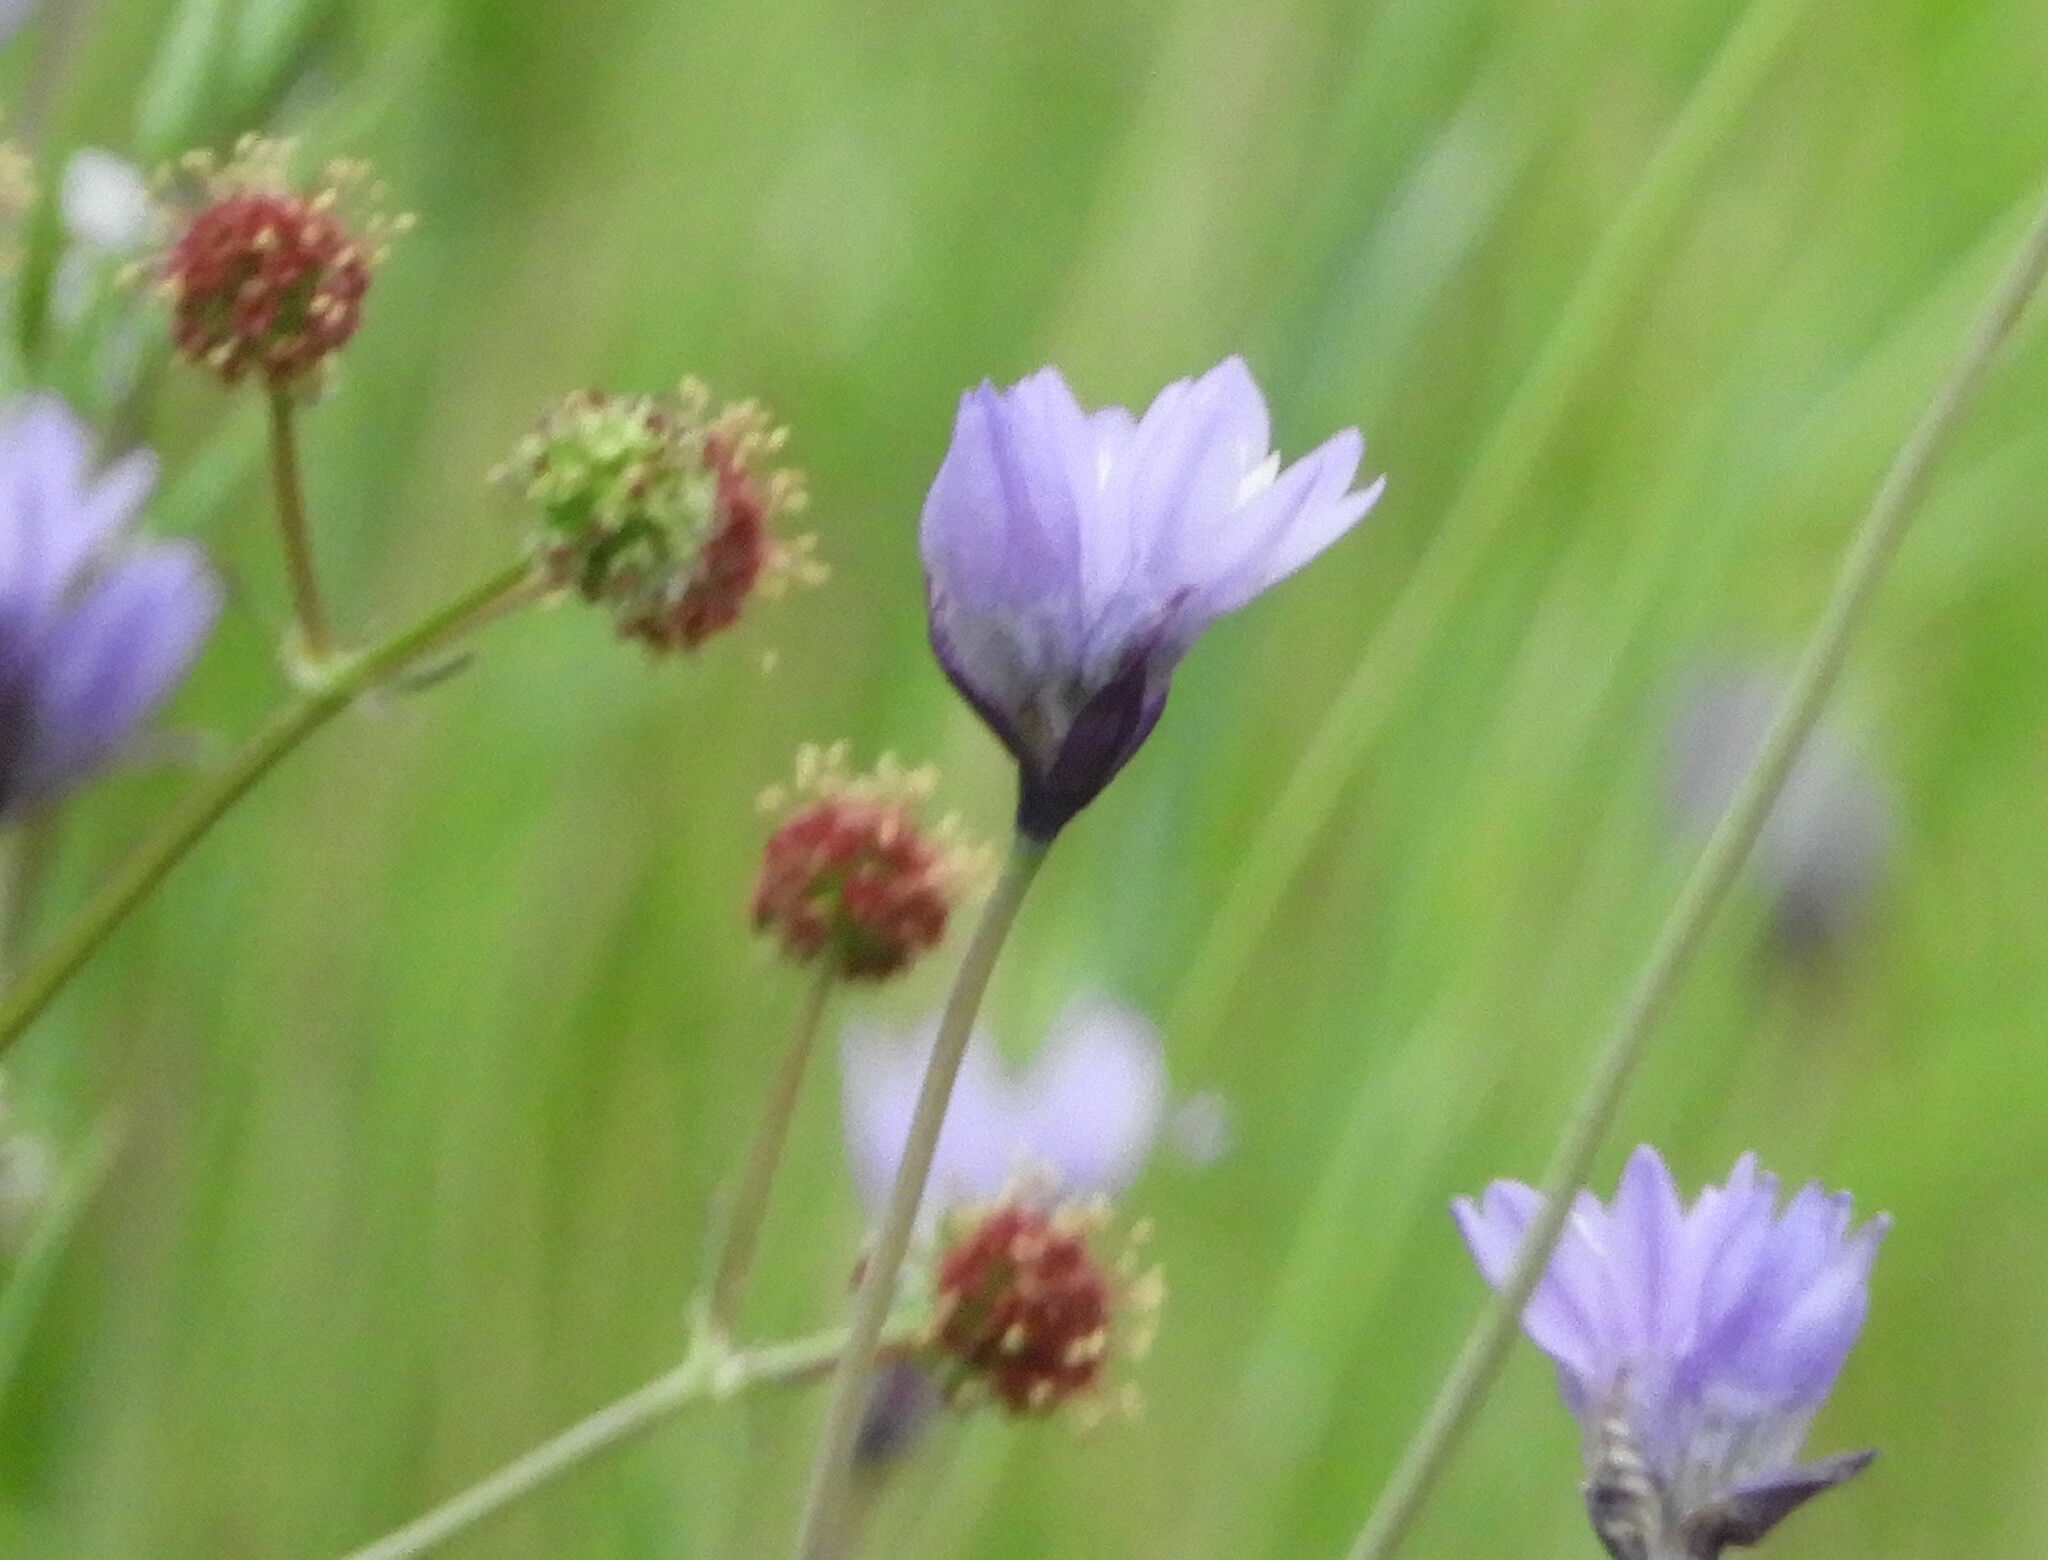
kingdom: Plantae
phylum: Tracheophyta
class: Magnoliopsida
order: Apiales
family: Apiaceae
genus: Sanicula
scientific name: Sanicula bipinnatifida
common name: Shoe-buttons
